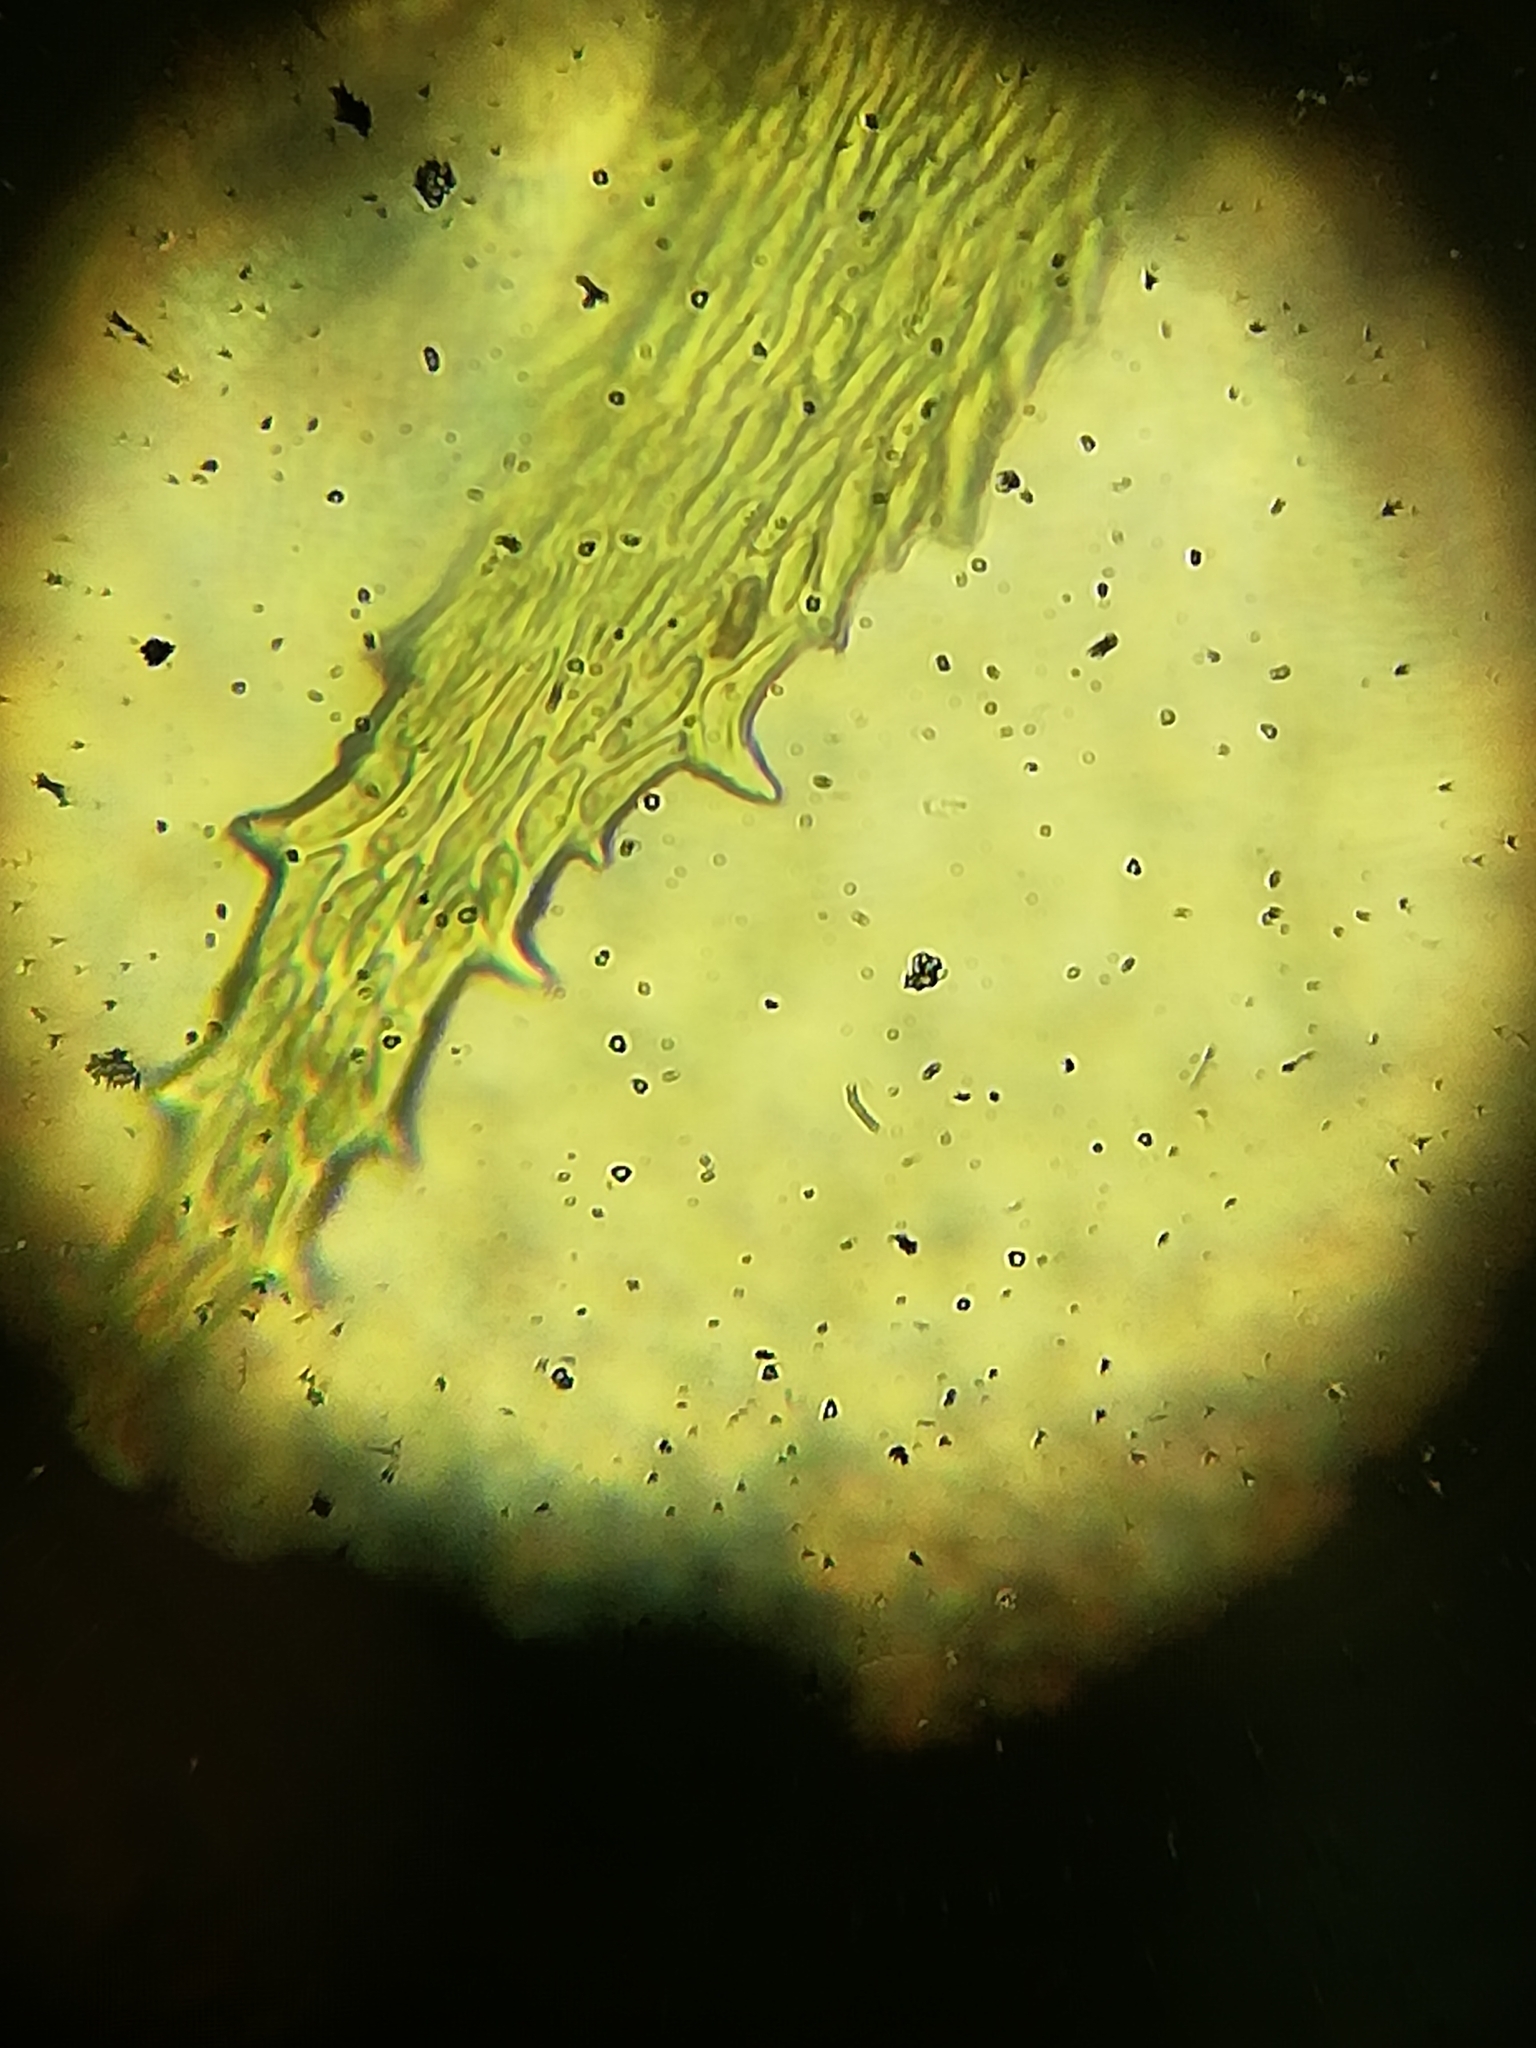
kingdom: Plantae
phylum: Bryophyta
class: Bryopsida
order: Hypnales
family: Antitrichiaceae
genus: Antitrichia
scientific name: Antitrichia curtipendula
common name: Pendulous wing-moss
